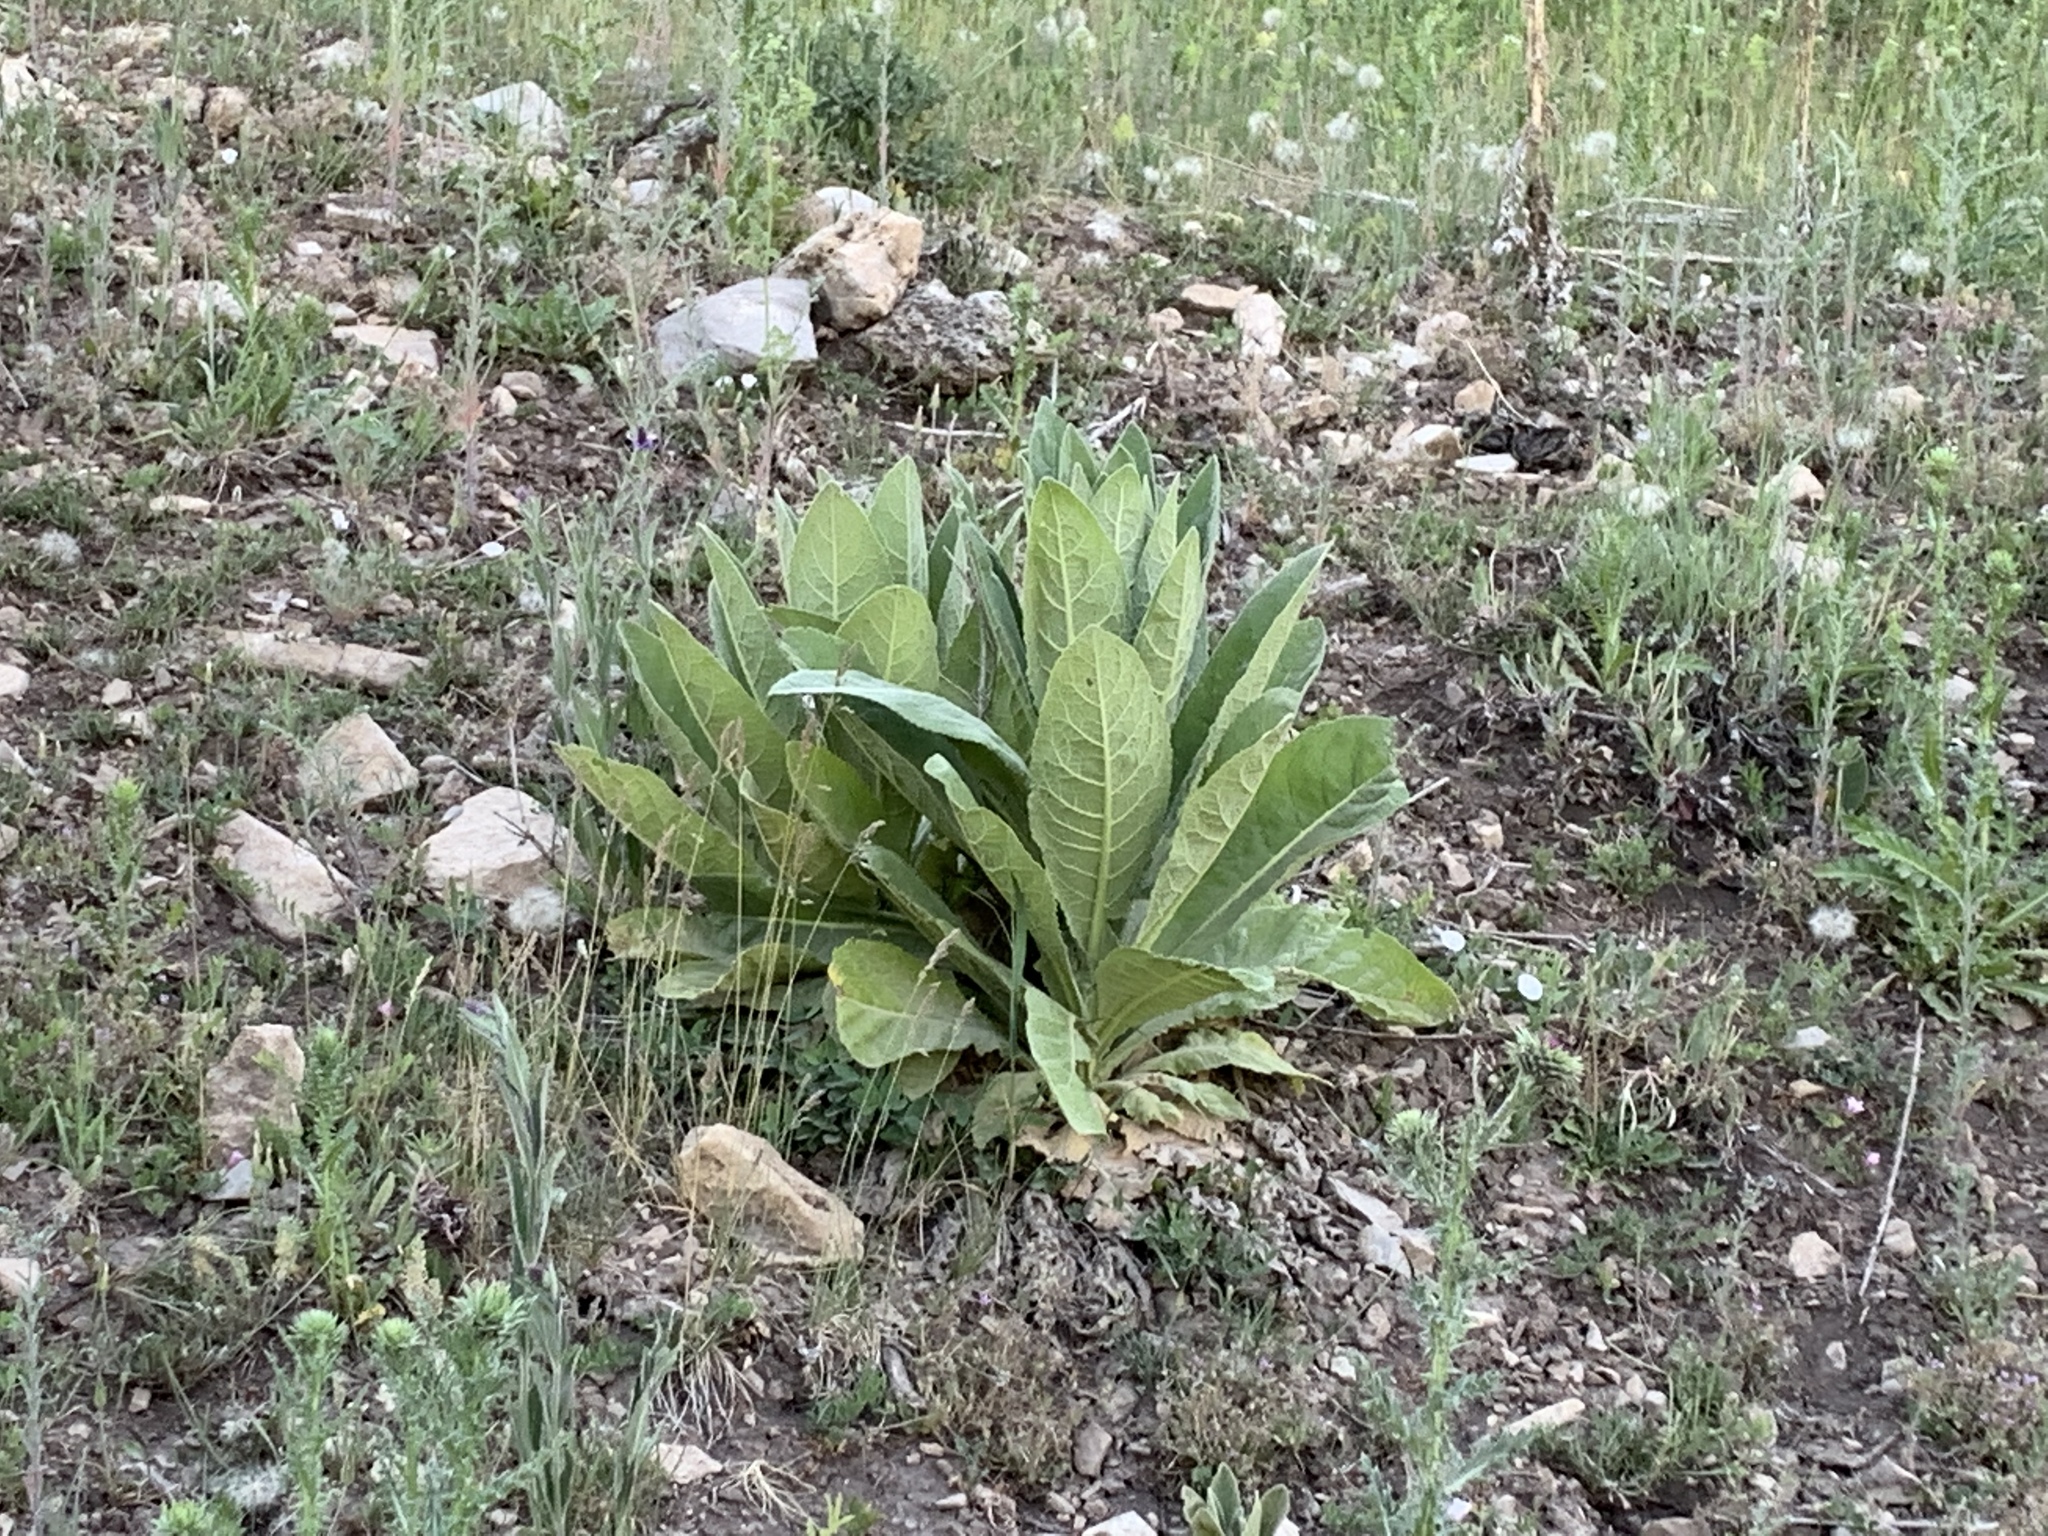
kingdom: Plantae
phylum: Tracheophyta
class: Magnoliopsida
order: Lamiales
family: Scrophulariaceae
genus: Verbascum
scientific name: Verbascum thapsus
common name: Common mullein
